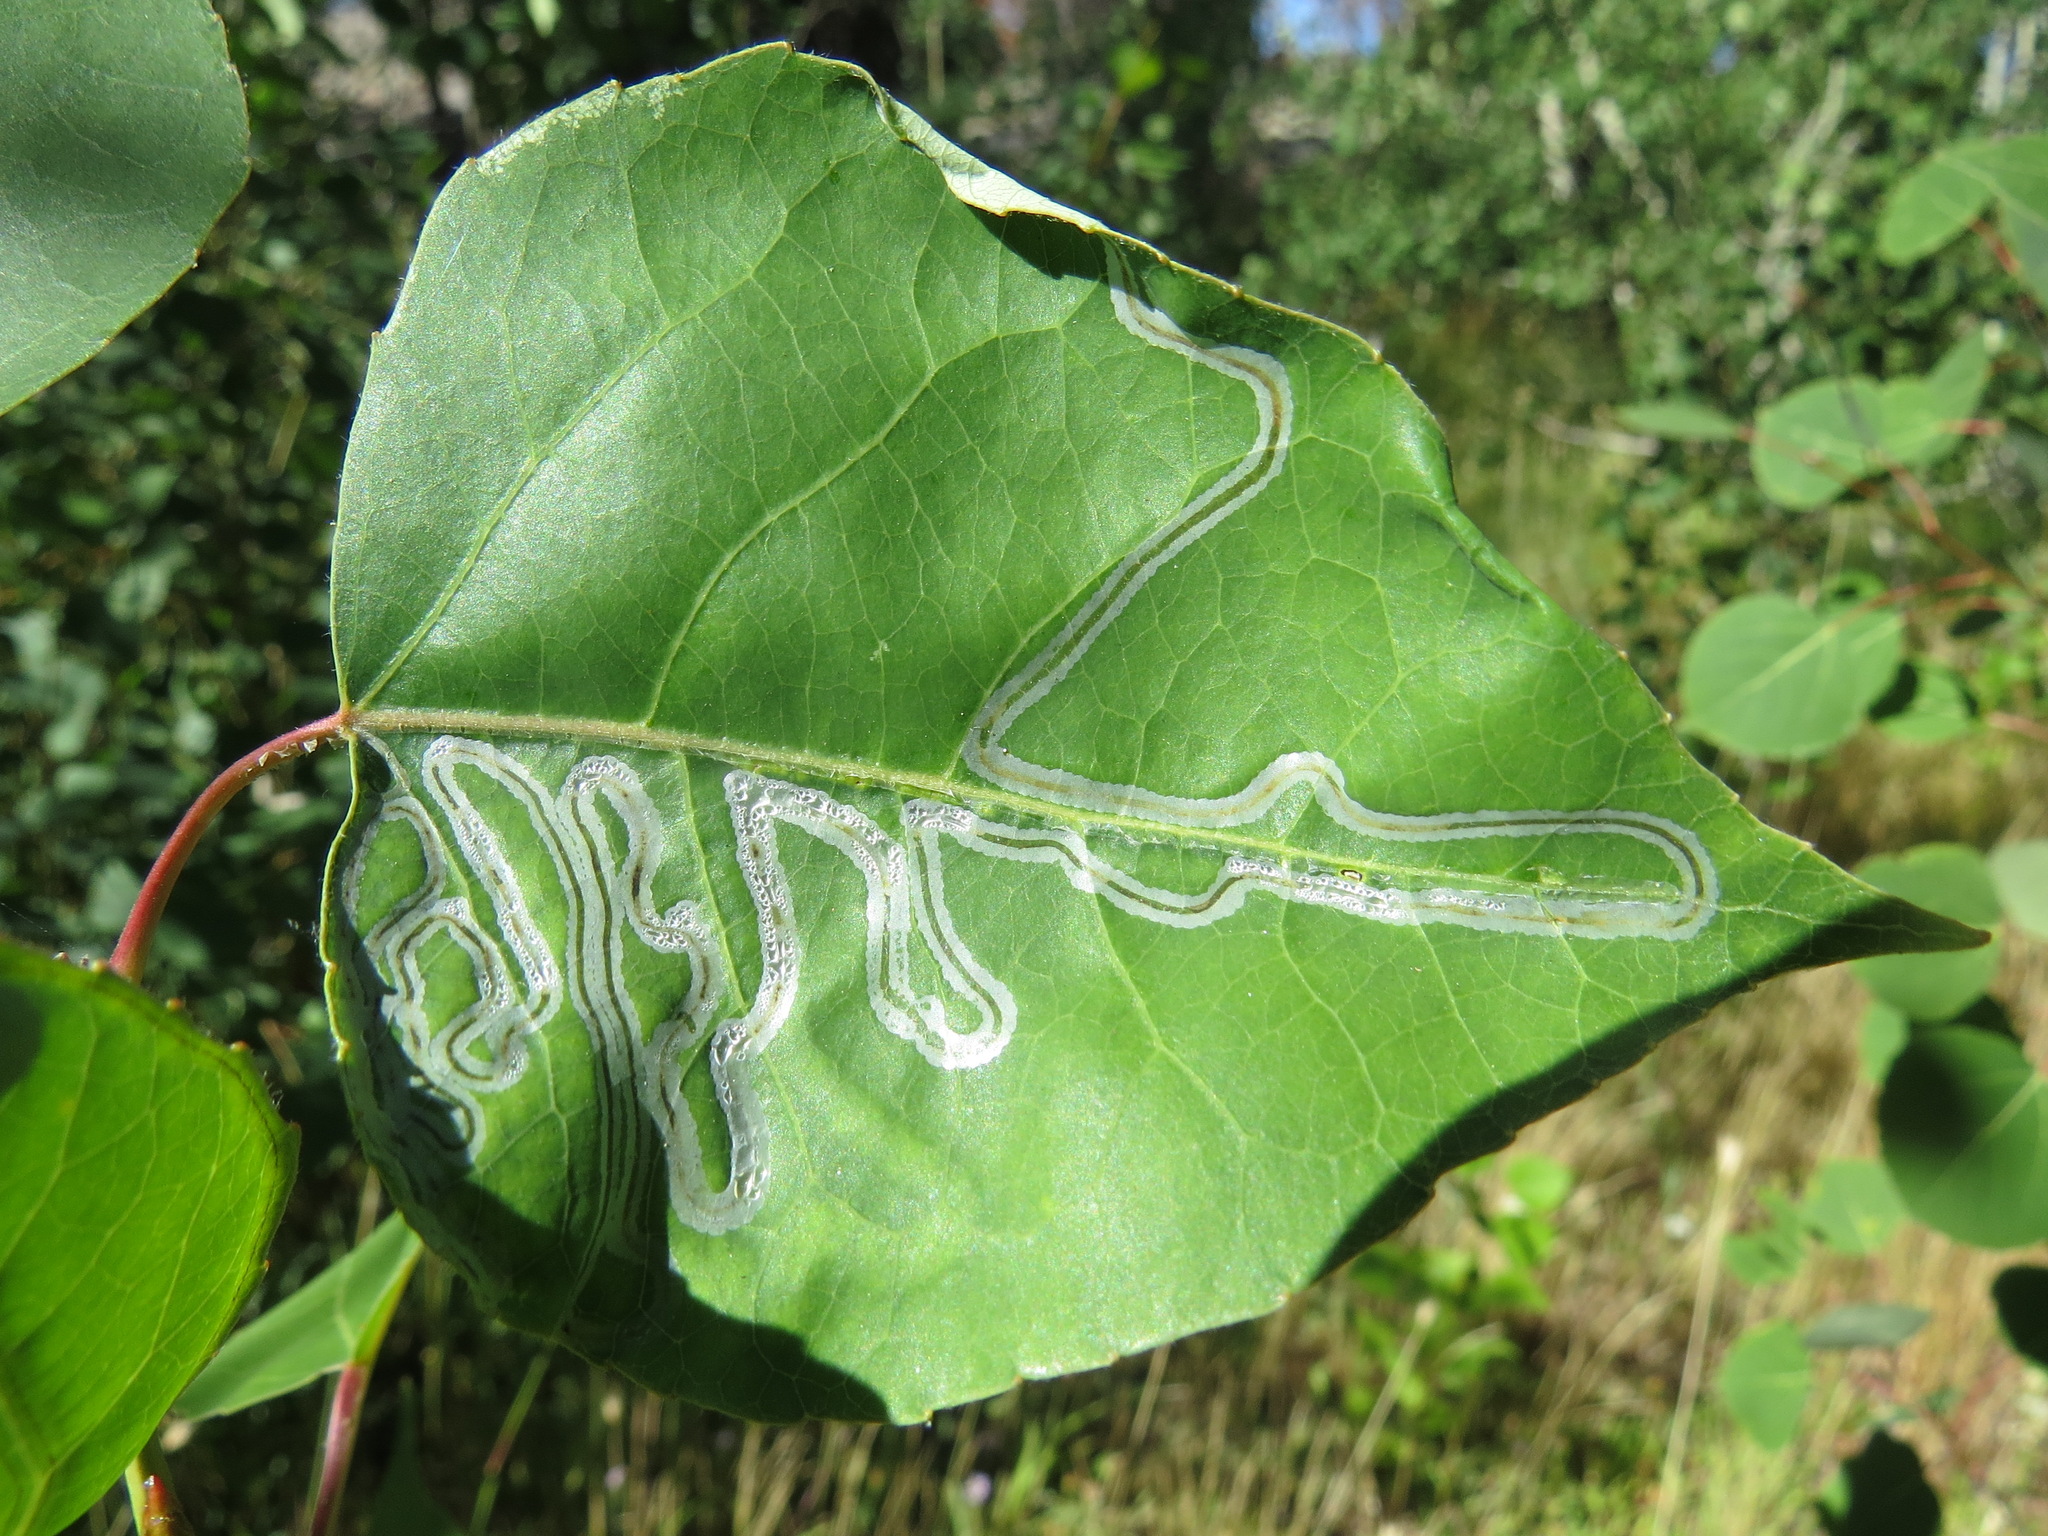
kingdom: Animalia
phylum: Arthropoda
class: Insecta
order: Lepidoptera
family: Gracillariidae
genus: Phyllocnistis
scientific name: Phyllocnistis populiella
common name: Aspen serpentine leafminer moth
